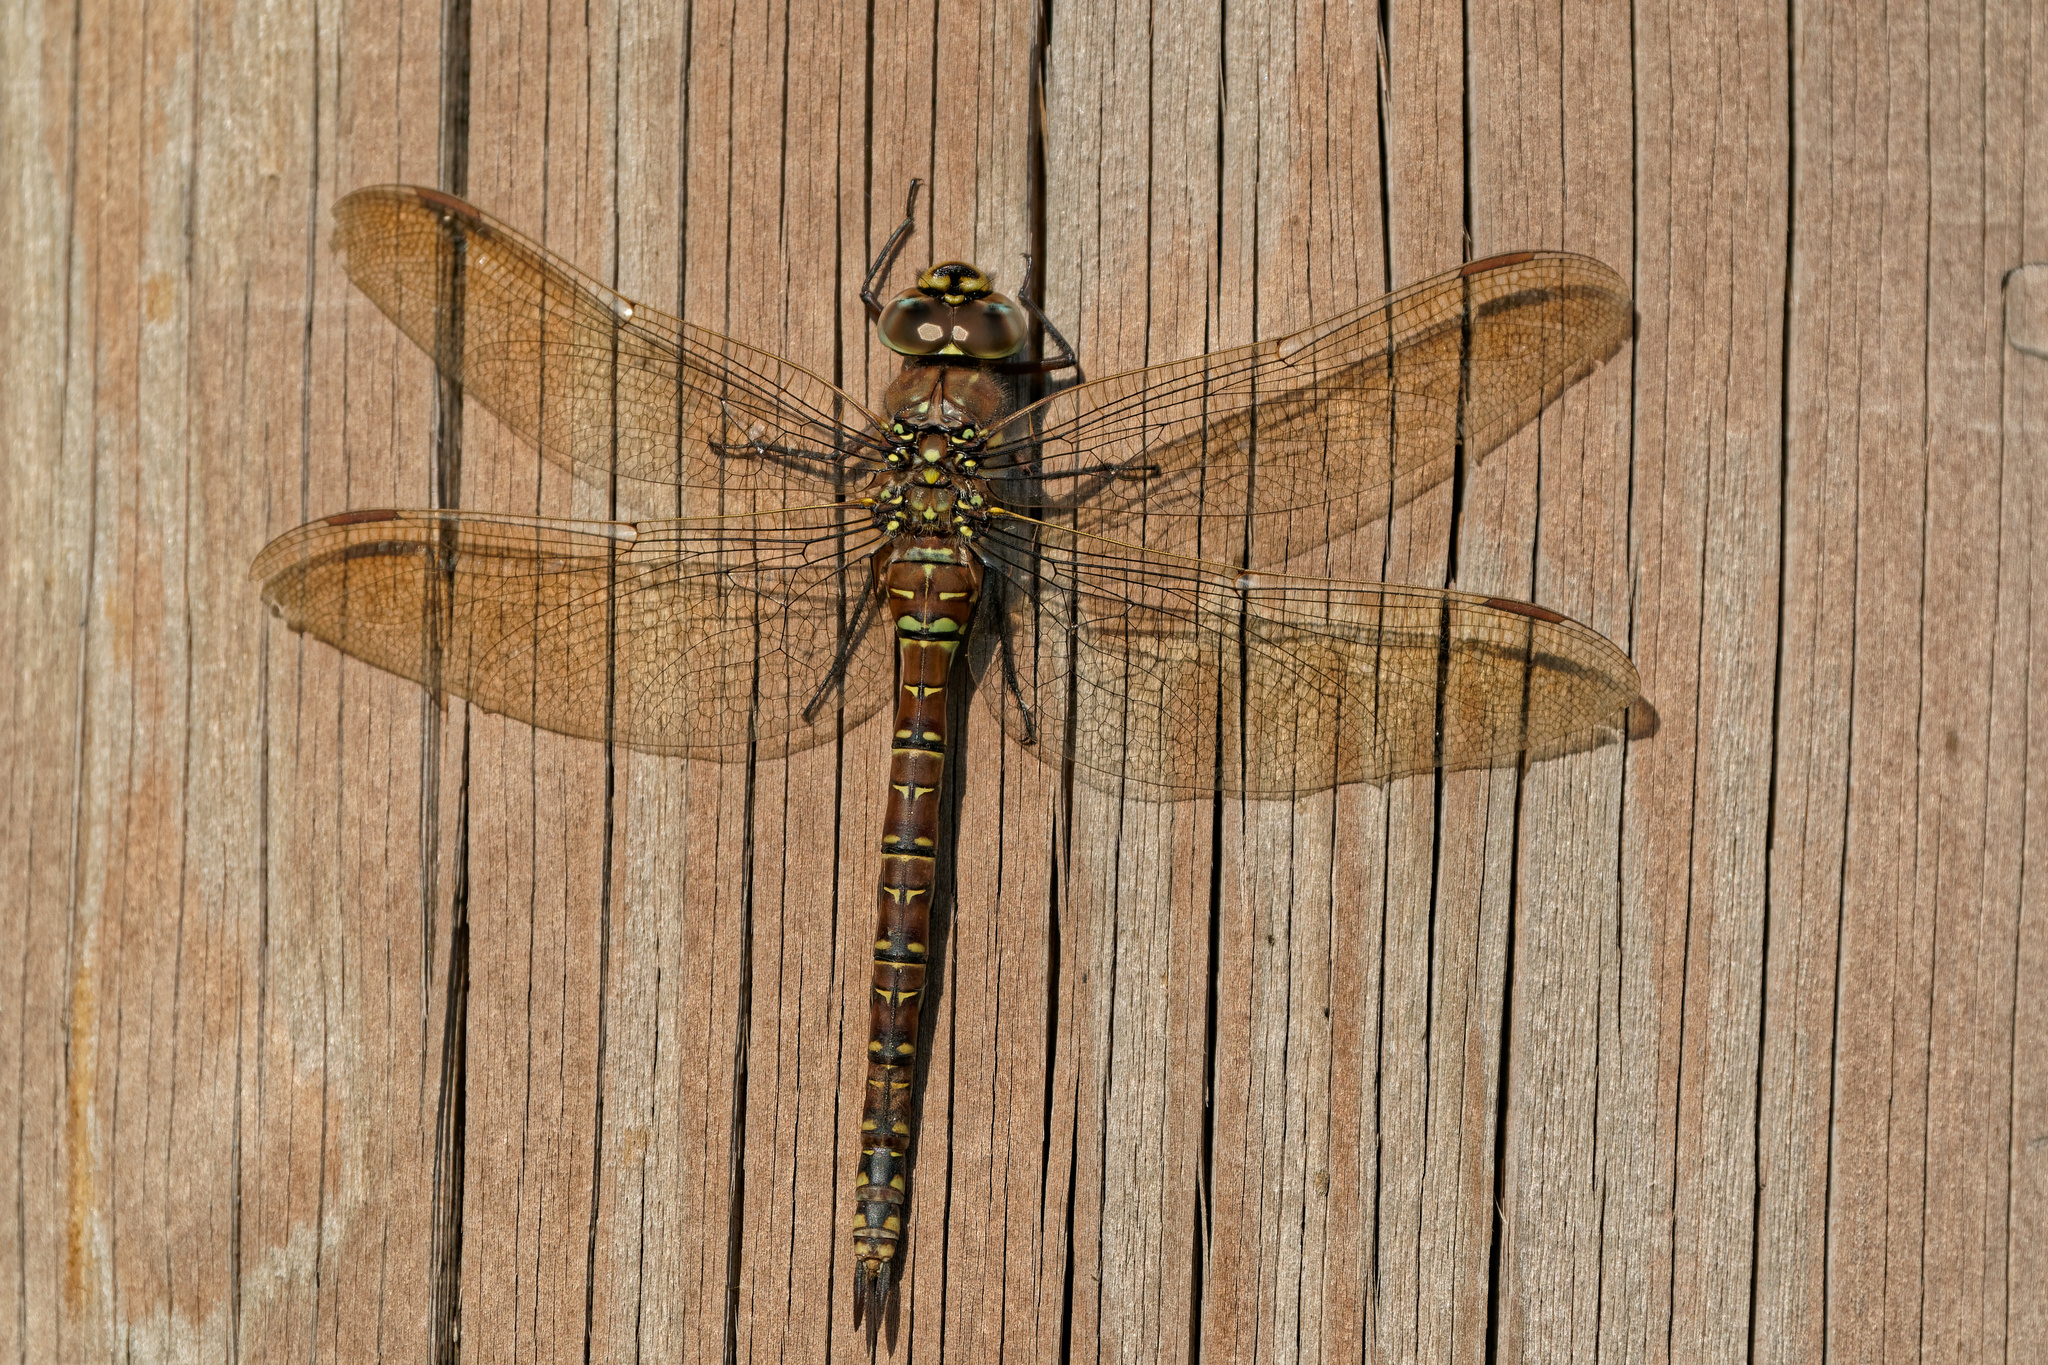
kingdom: Animalia
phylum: Arthropoda
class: Insecta
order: Odonata
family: Aeshnidae
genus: Aeshna
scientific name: Aeshna juncea
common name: Moorland hawker
